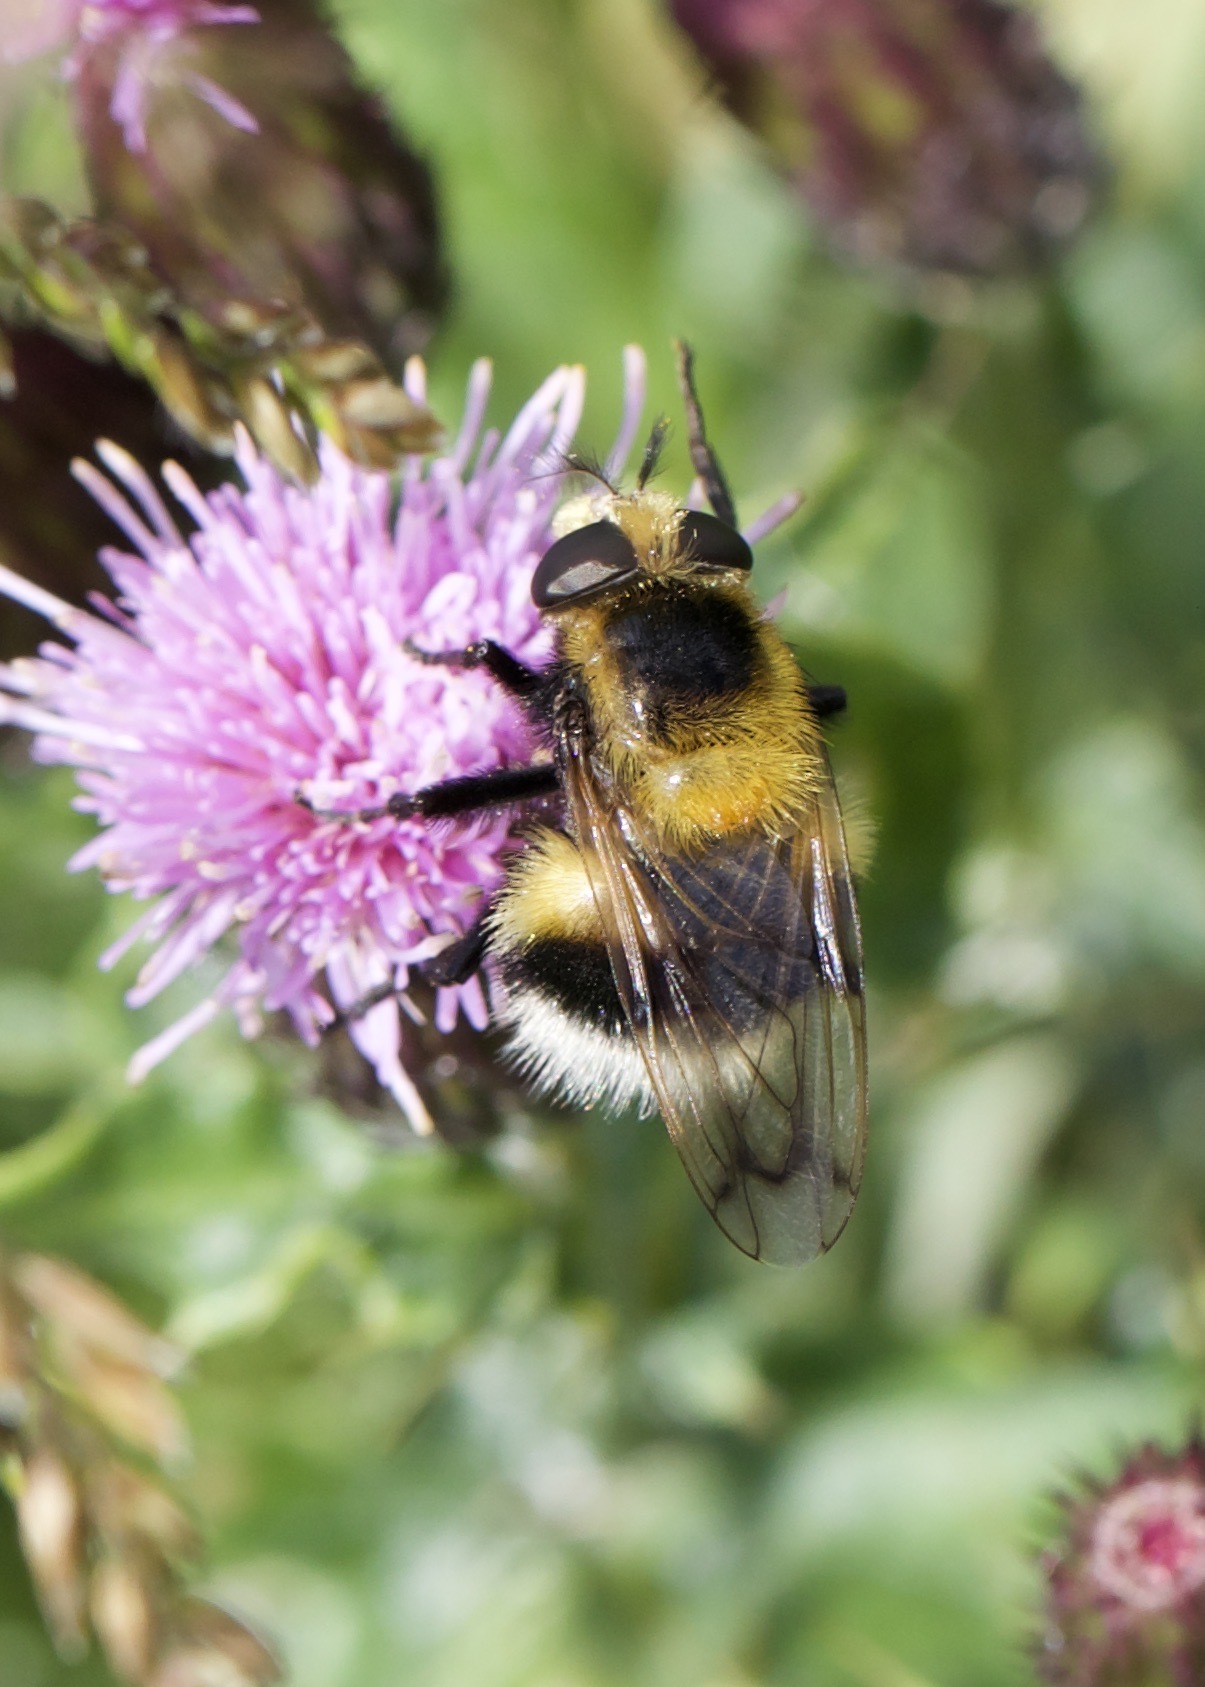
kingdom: Animalia
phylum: Arthropoda
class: Insecta
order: Diptera
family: Syrphidae
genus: Volucella
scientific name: Volucella bombylans
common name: Bumble bee hover fly
